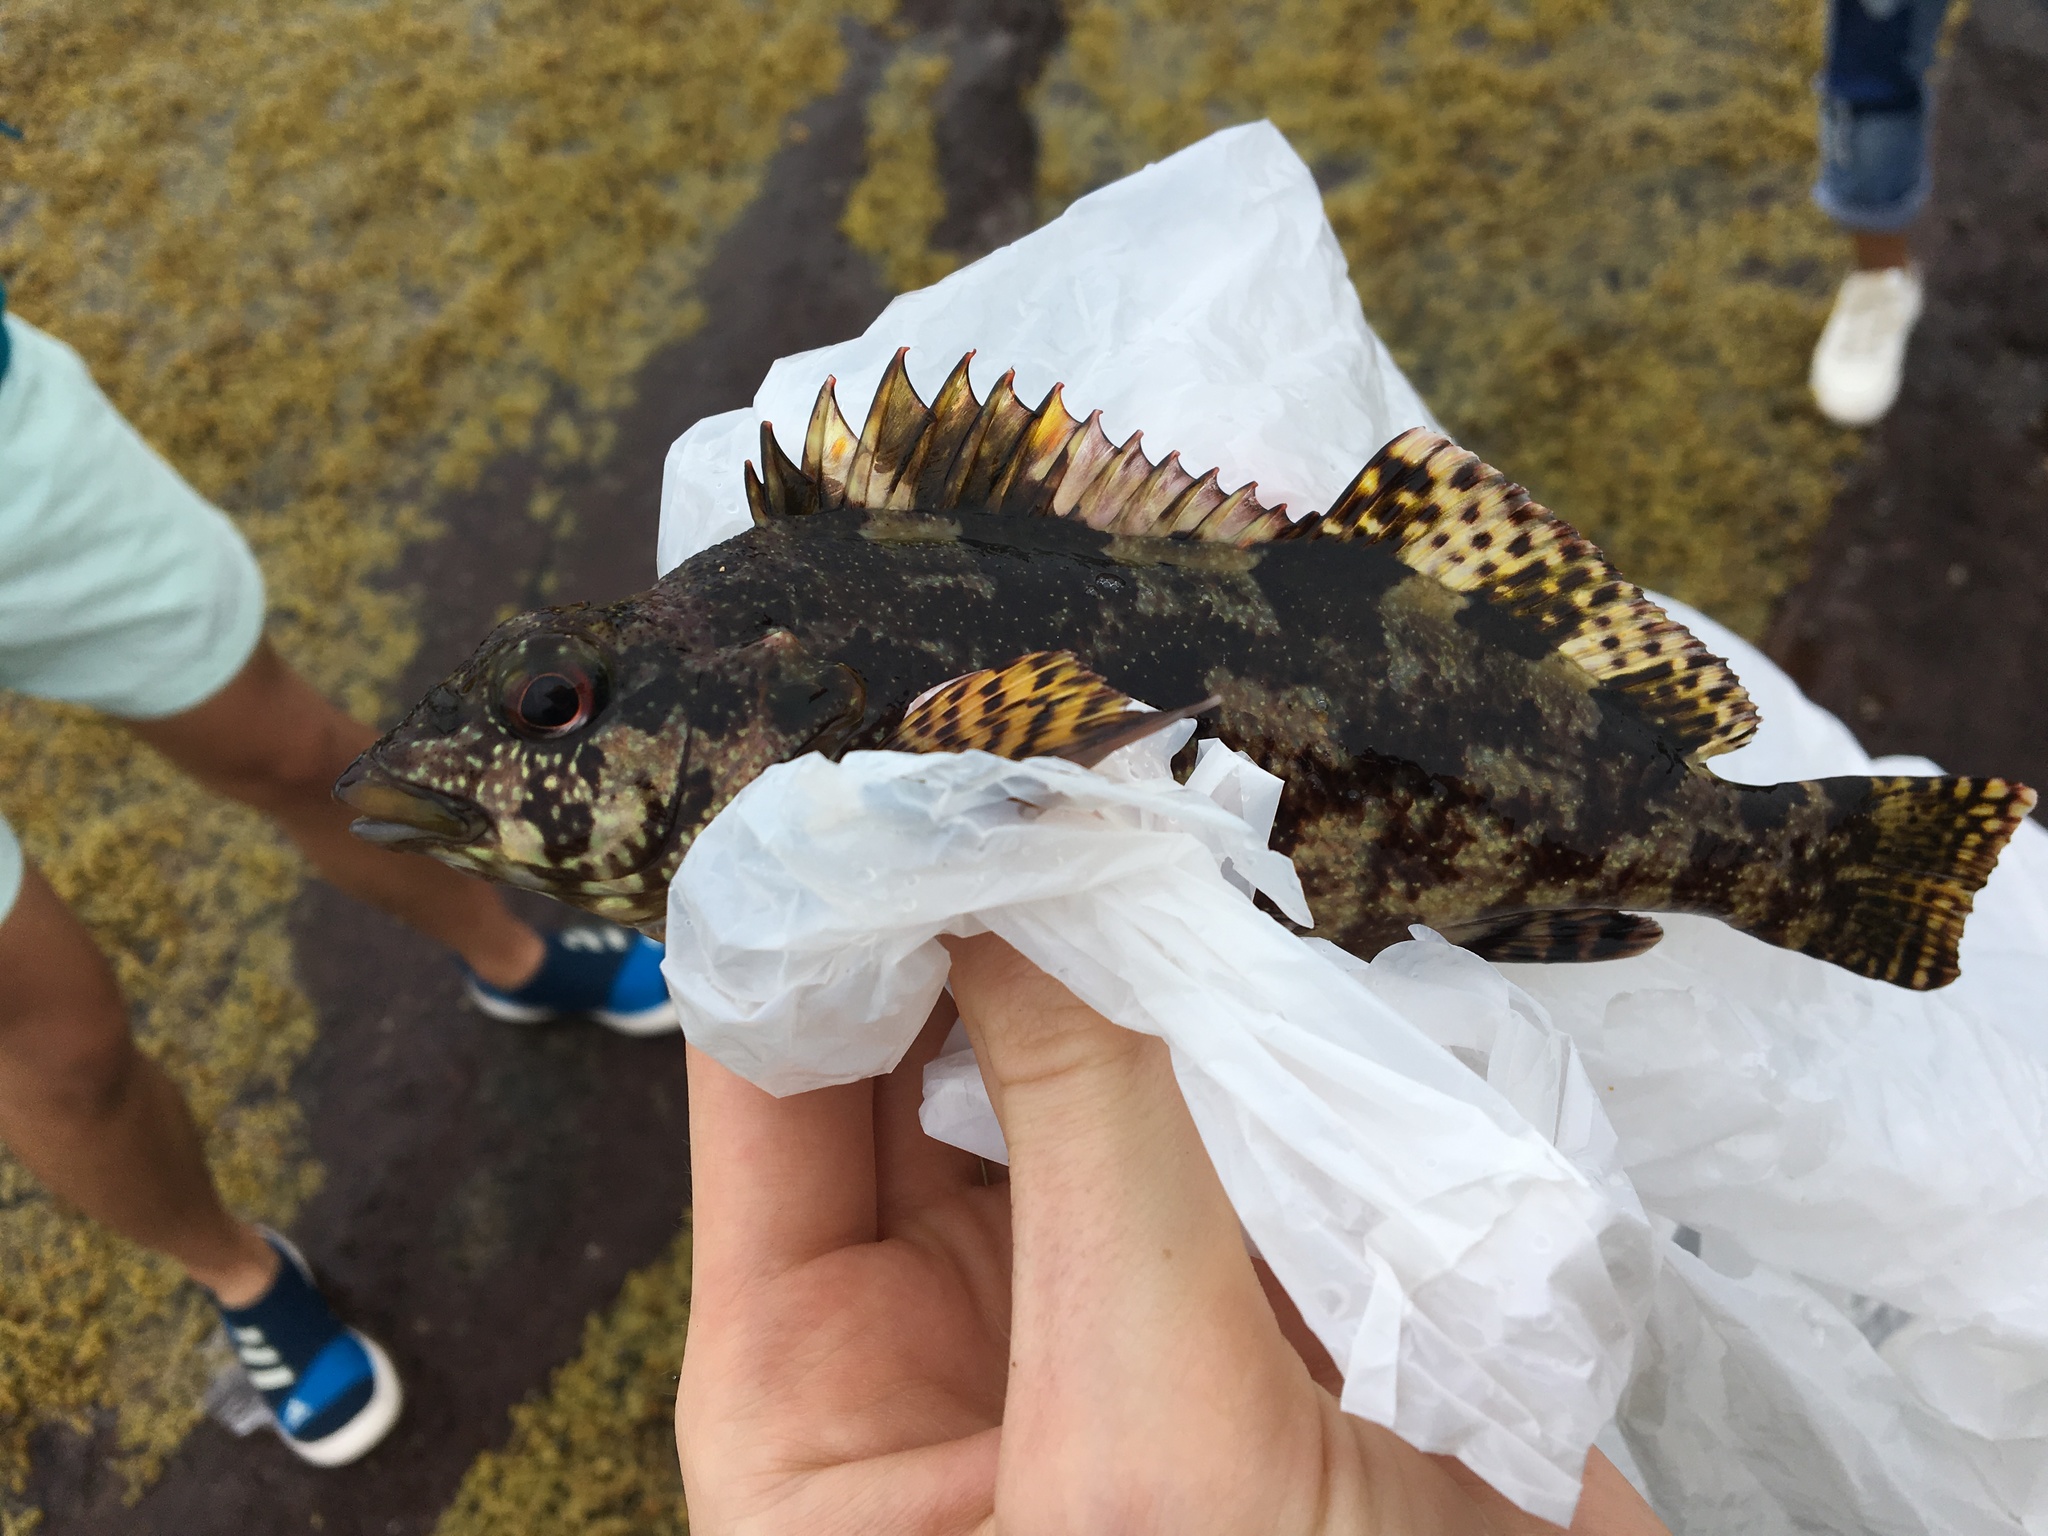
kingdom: Animalia
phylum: Chordata
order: Perciformes
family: Chironemidae
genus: Chironemus
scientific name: Chironemus marmoratus
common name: Kelpfish
